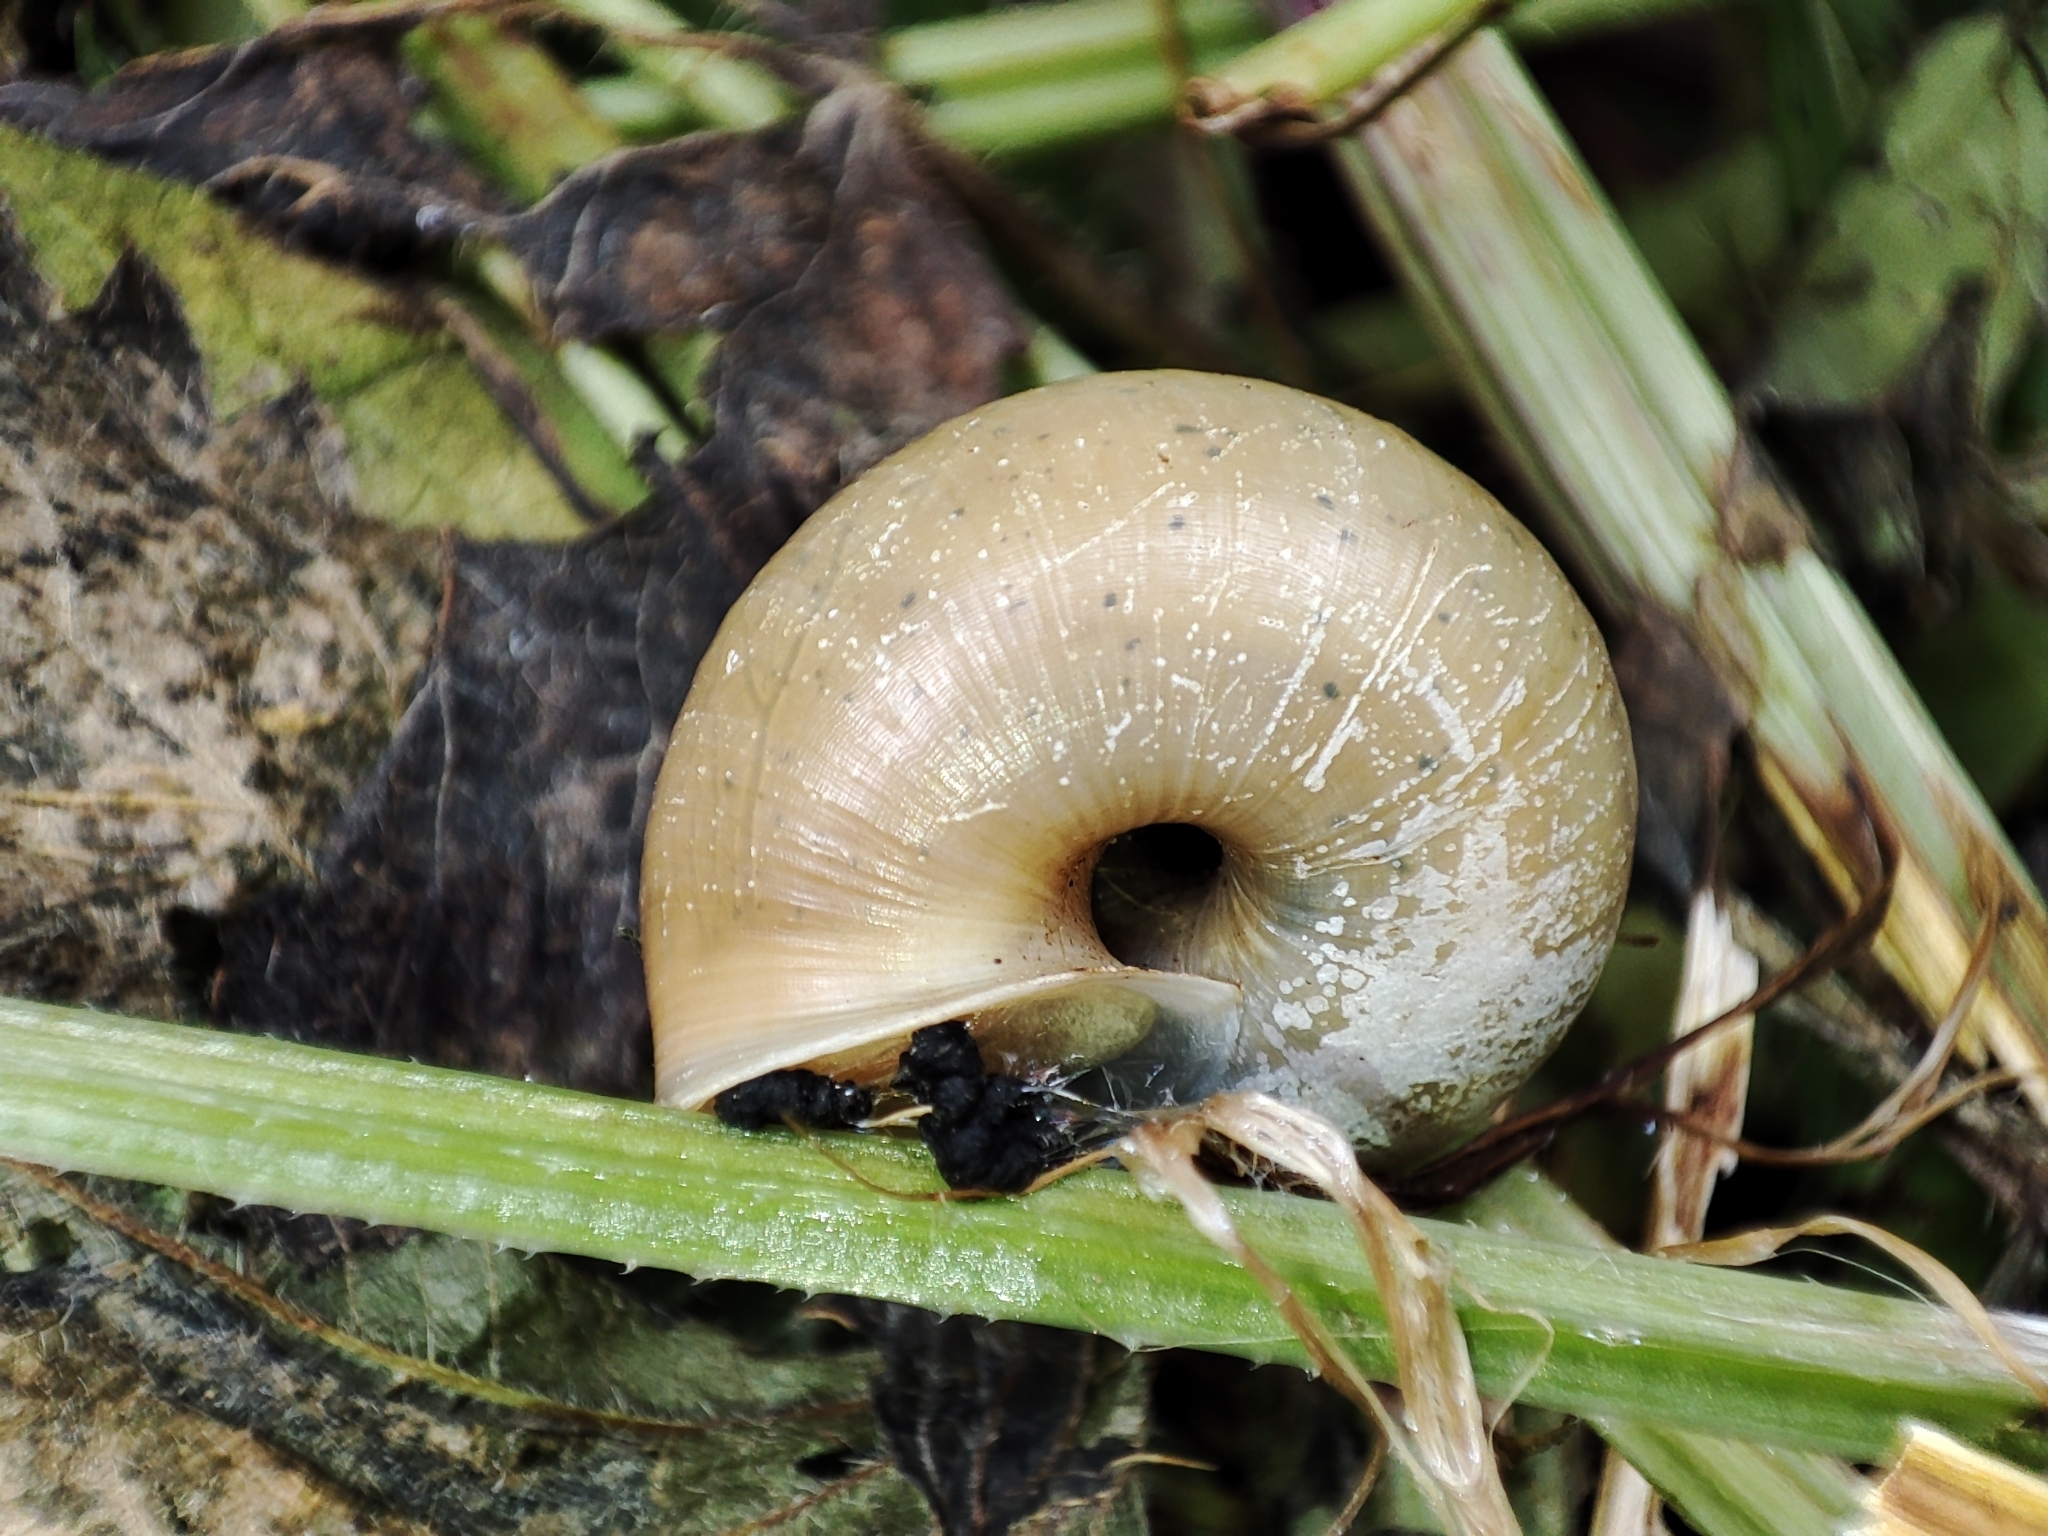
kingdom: Animalia
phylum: Mollusca
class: Gastropoda
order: Stylommatophora
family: Camaenidae
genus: Fruticicola
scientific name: Fruticicola fruticum
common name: Bush snail
